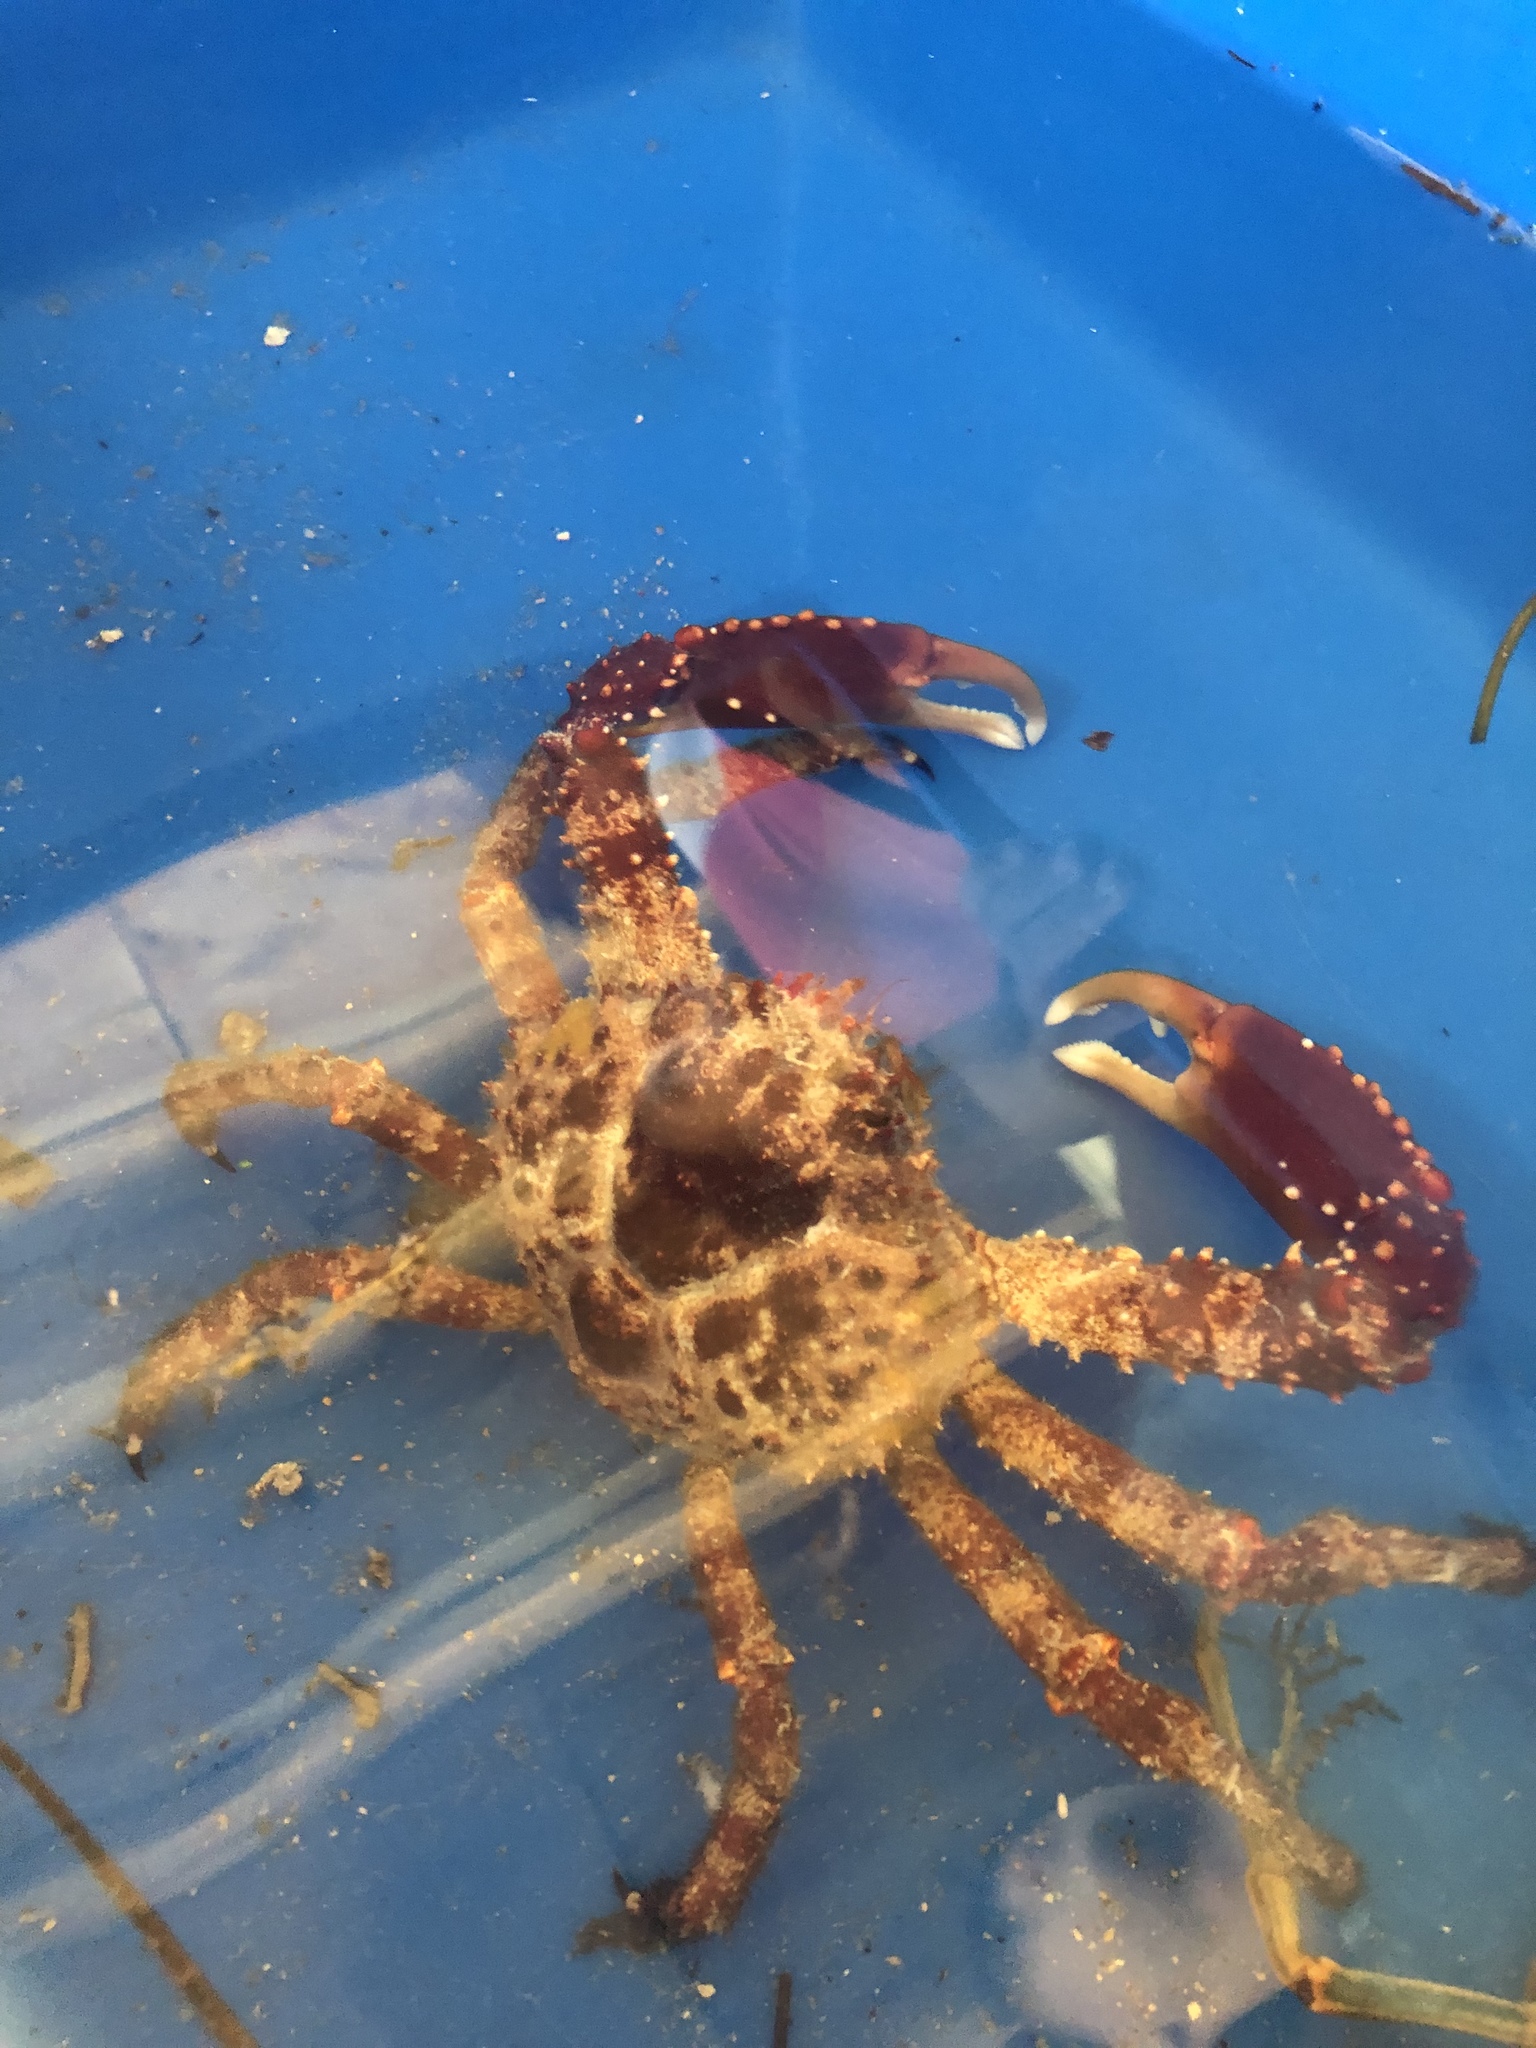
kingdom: Animalia
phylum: Arthropoda
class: Malacostraca
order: Decapoda
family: Mithracidae
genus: Maguimithrax
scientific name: Maguimithrax spinosissimus
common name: Spiny spider crab
